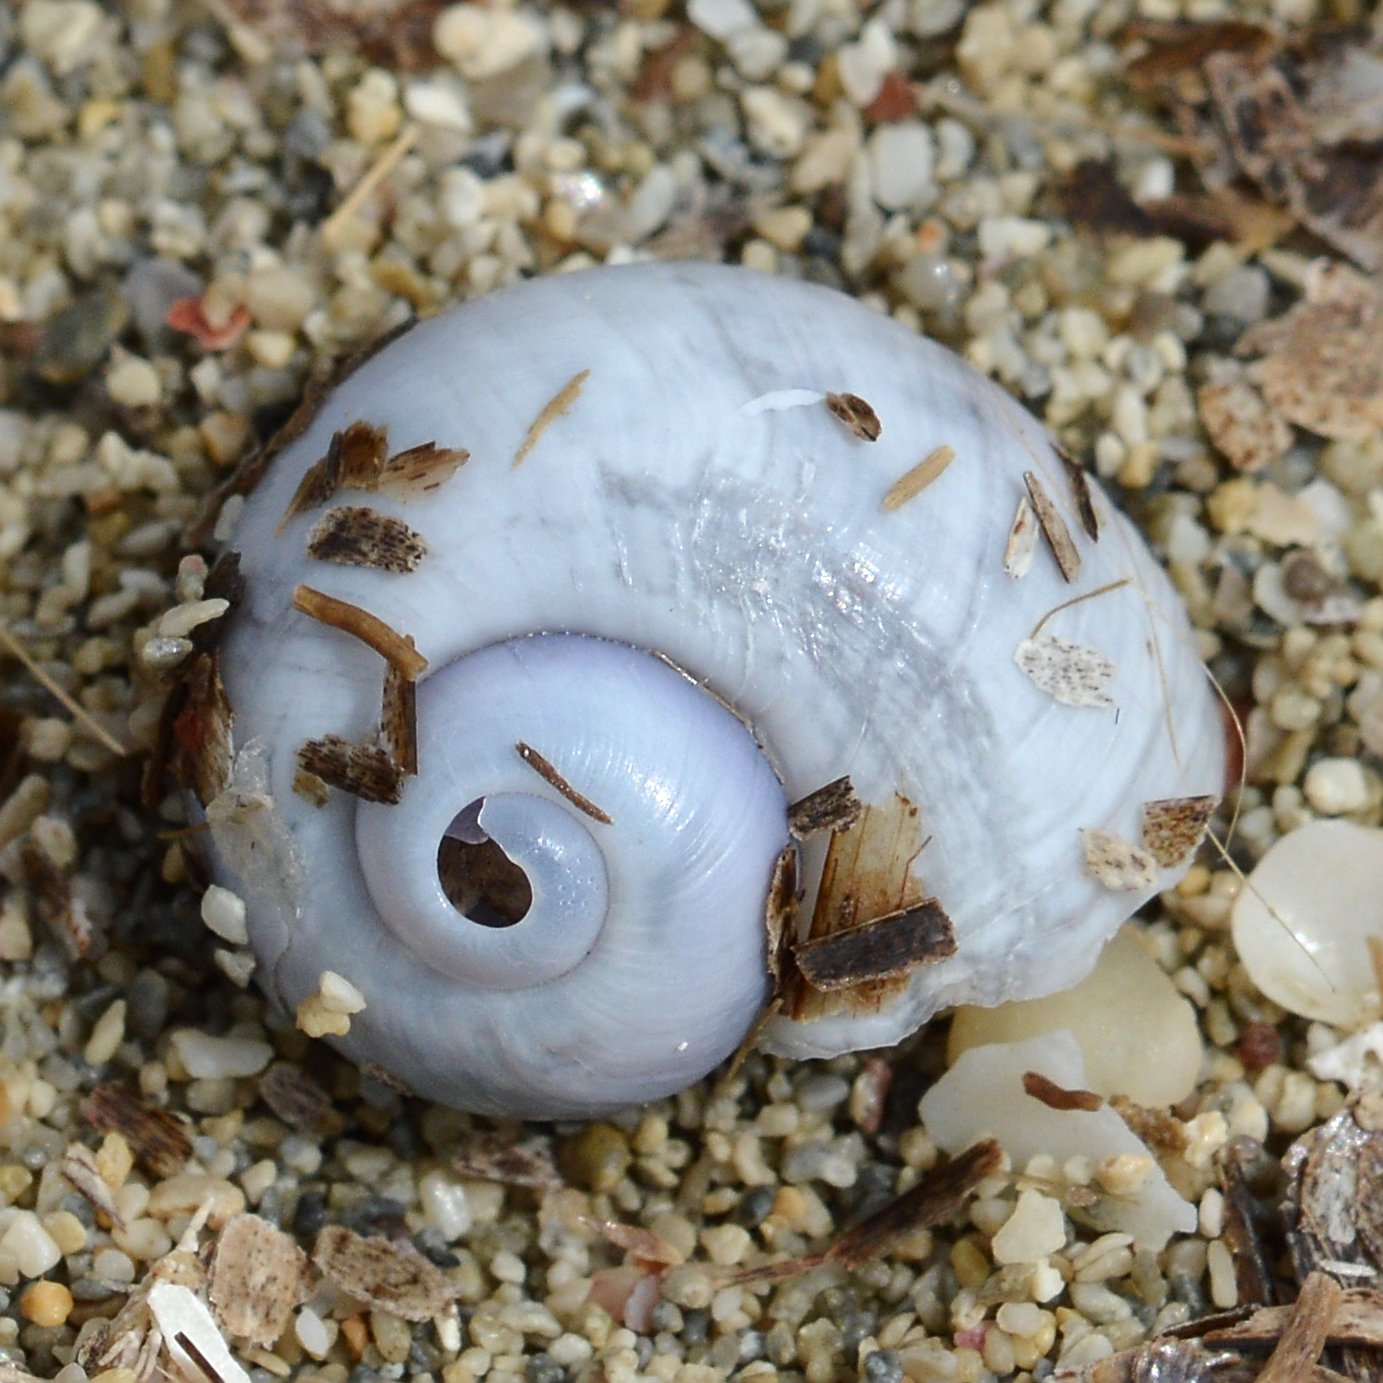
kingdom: Animalia
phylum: Mollusca
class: Gastropoda
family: Epitoniidae
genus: Janthina
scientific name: Janthina pallida
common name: Pale janthina
